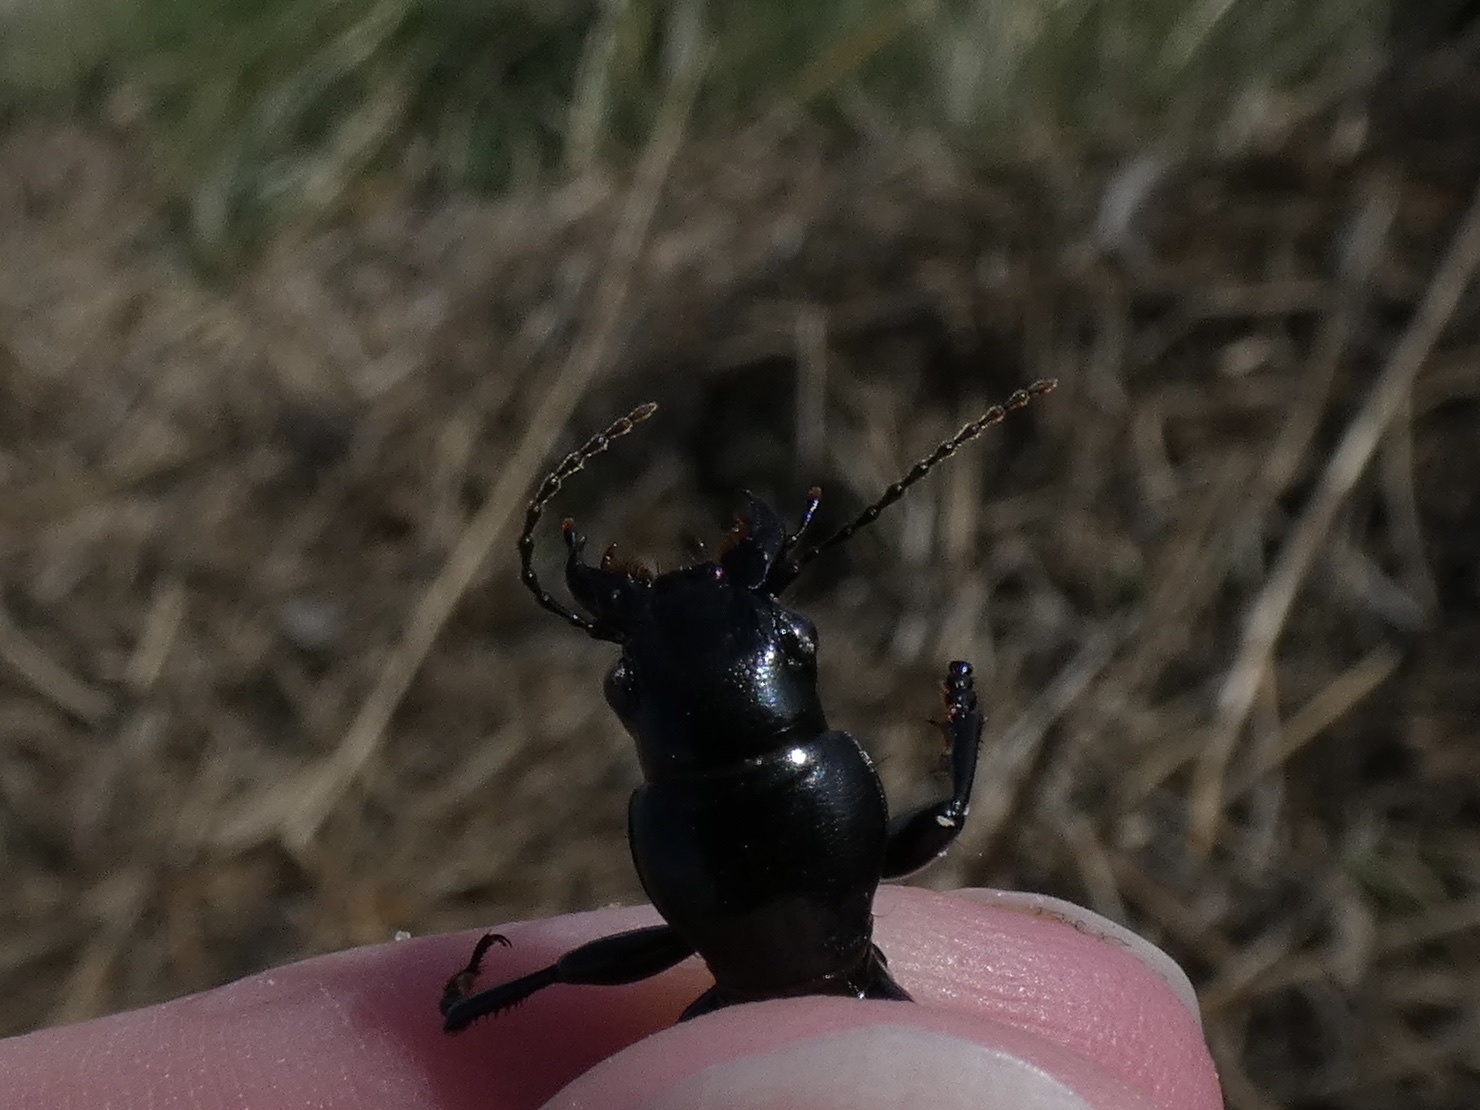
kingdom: Animalia
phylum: Arthropoda
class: Insecta
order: Coleoptera
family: Carabidae
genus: Broscus
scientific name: Broscus cephalotes
